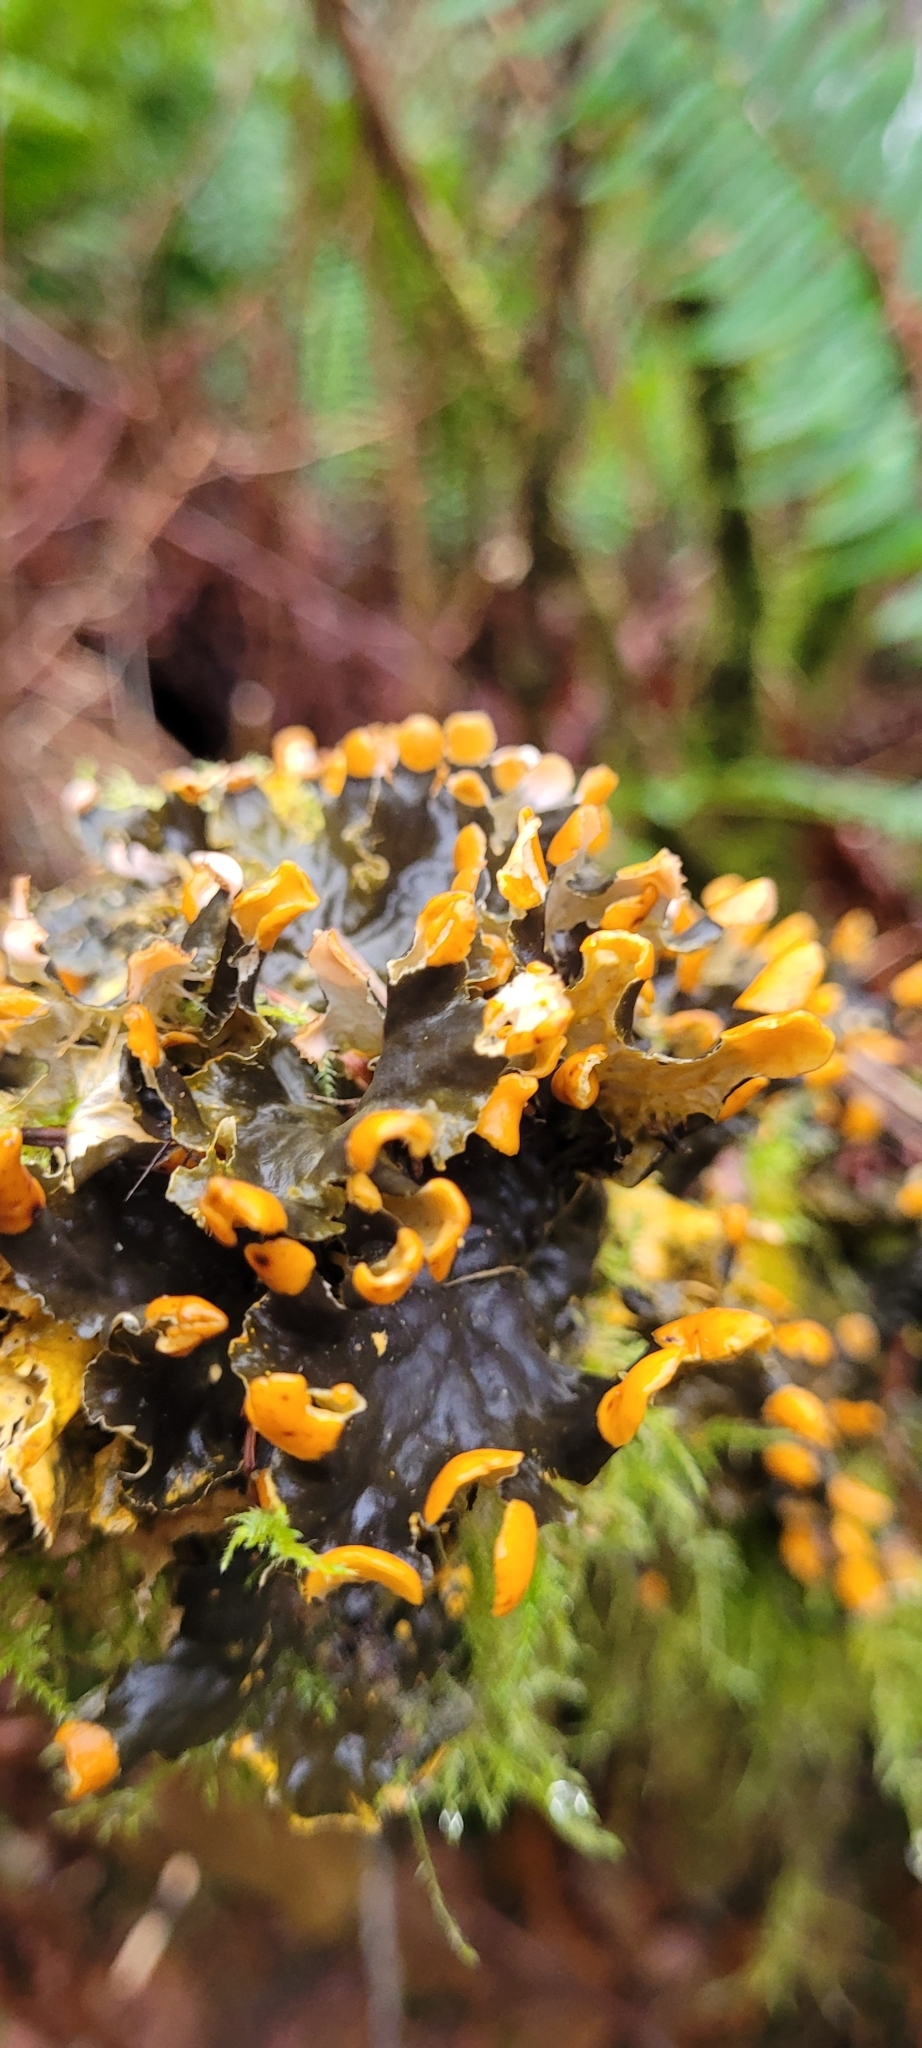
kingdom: Fungi
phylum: Ascomycota
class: Lecanoromycetes
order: Peltigerales
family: Peltigeraceae
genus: Peltigera
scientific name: Peltigera membranacea
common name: Membranous pelt lichen
